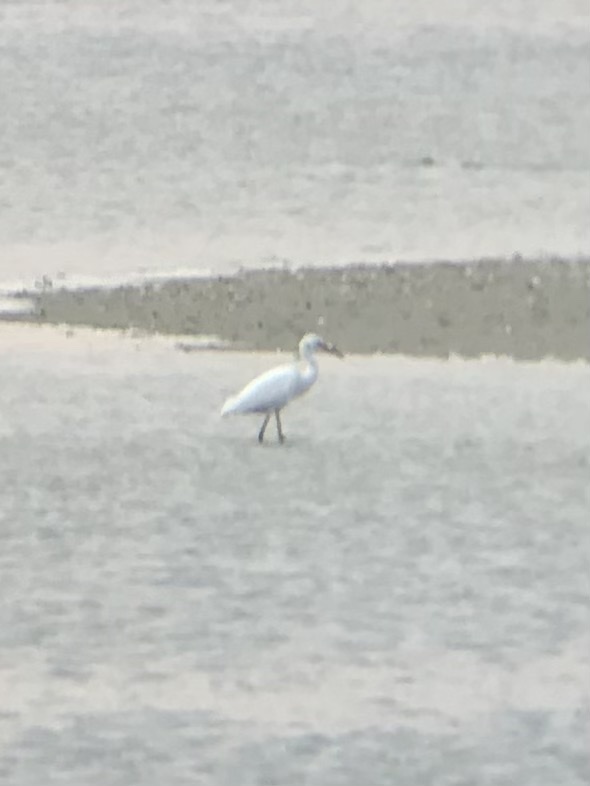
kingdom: Animalia
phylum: Chordata
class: Aves
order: Pelecaniformes
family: Ardeidae
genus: Egretta
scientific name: Egretta thula
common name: Snowy egret
